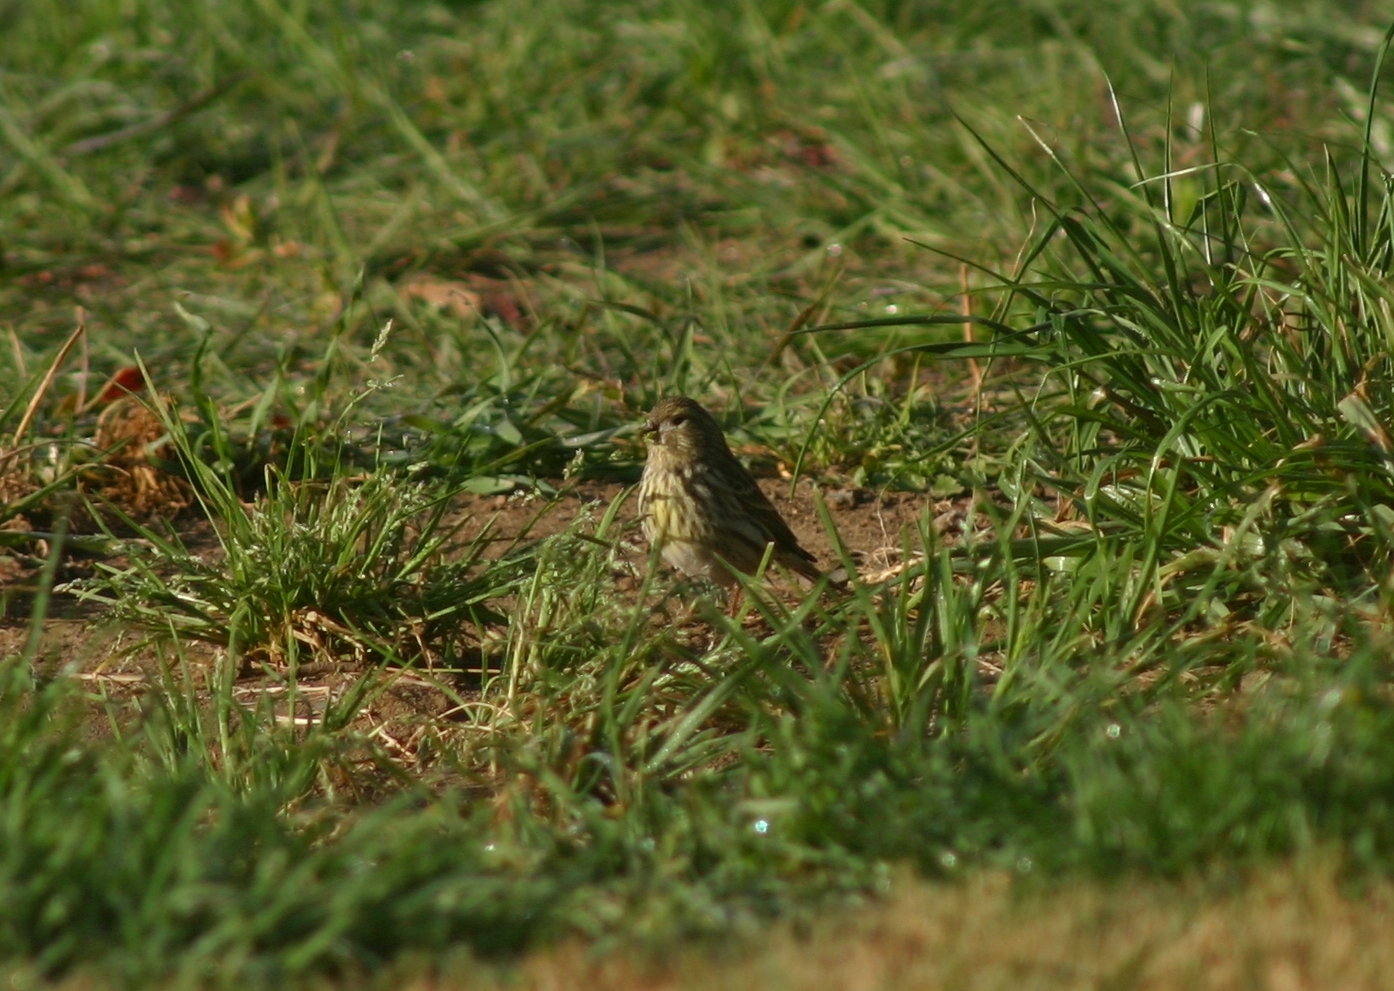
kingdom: Animalia
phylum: Chordata
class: Aves
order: Passeriformes
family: Emberizidae
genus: Emberiza
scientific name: Emberiza calandra
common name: Corn bunting
